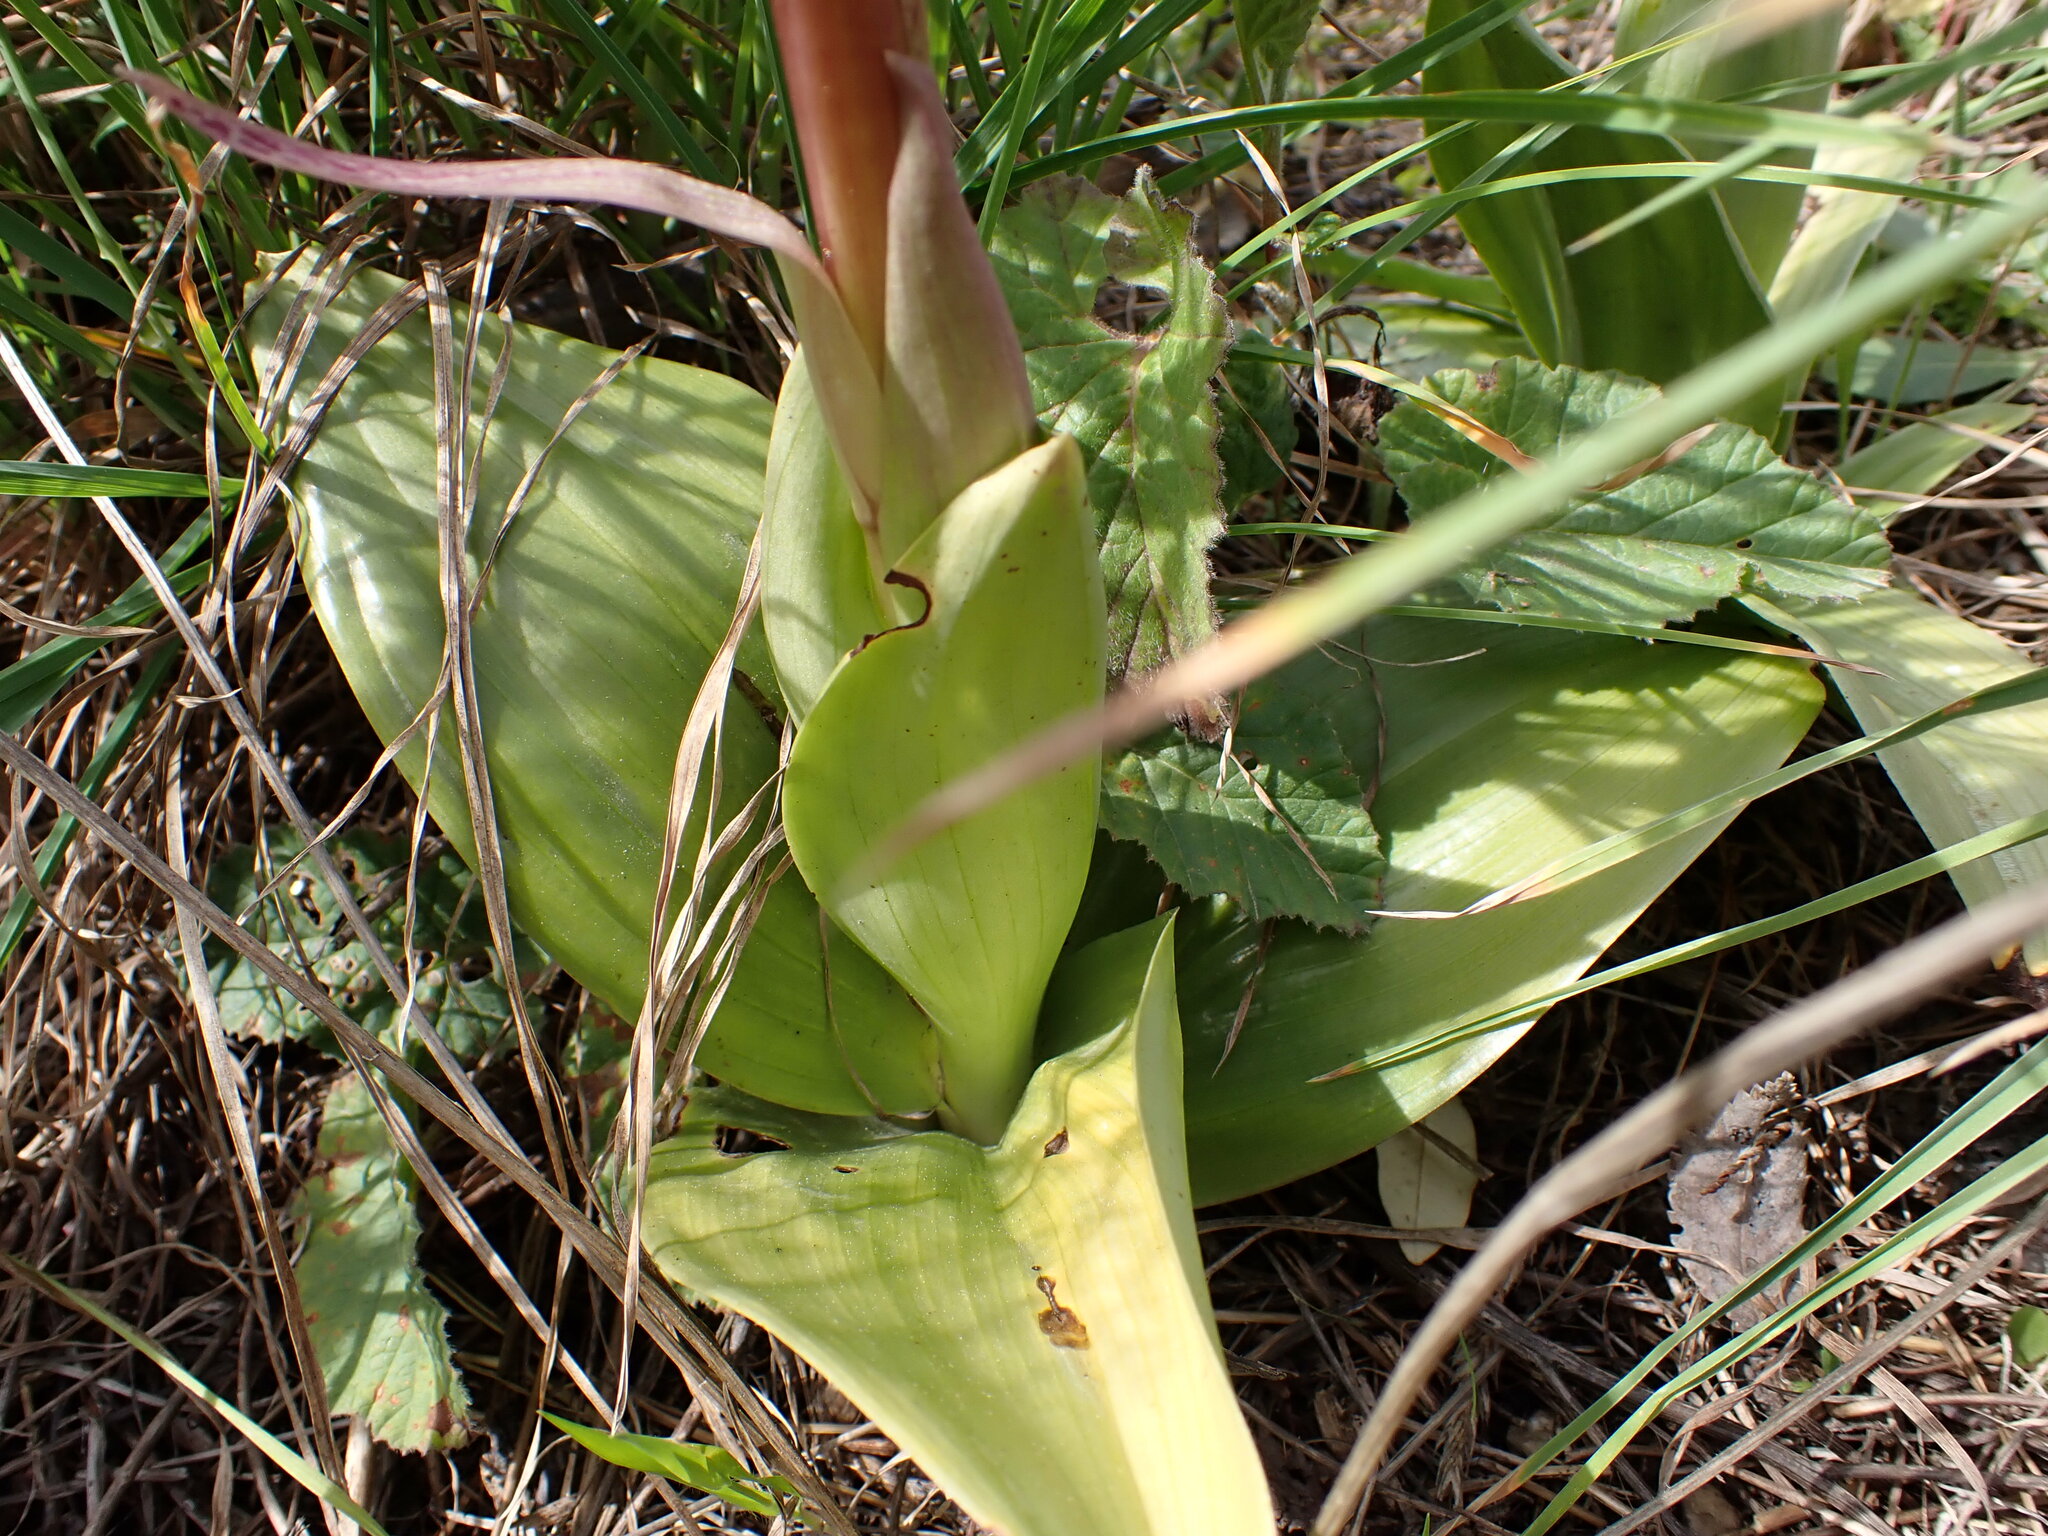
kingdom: Plantae
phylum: Tracheophyta
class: Liliopsida
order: Asparagales
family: Orchidaceae
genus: Himantoglossum
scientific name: Himantoglossum robertianum
